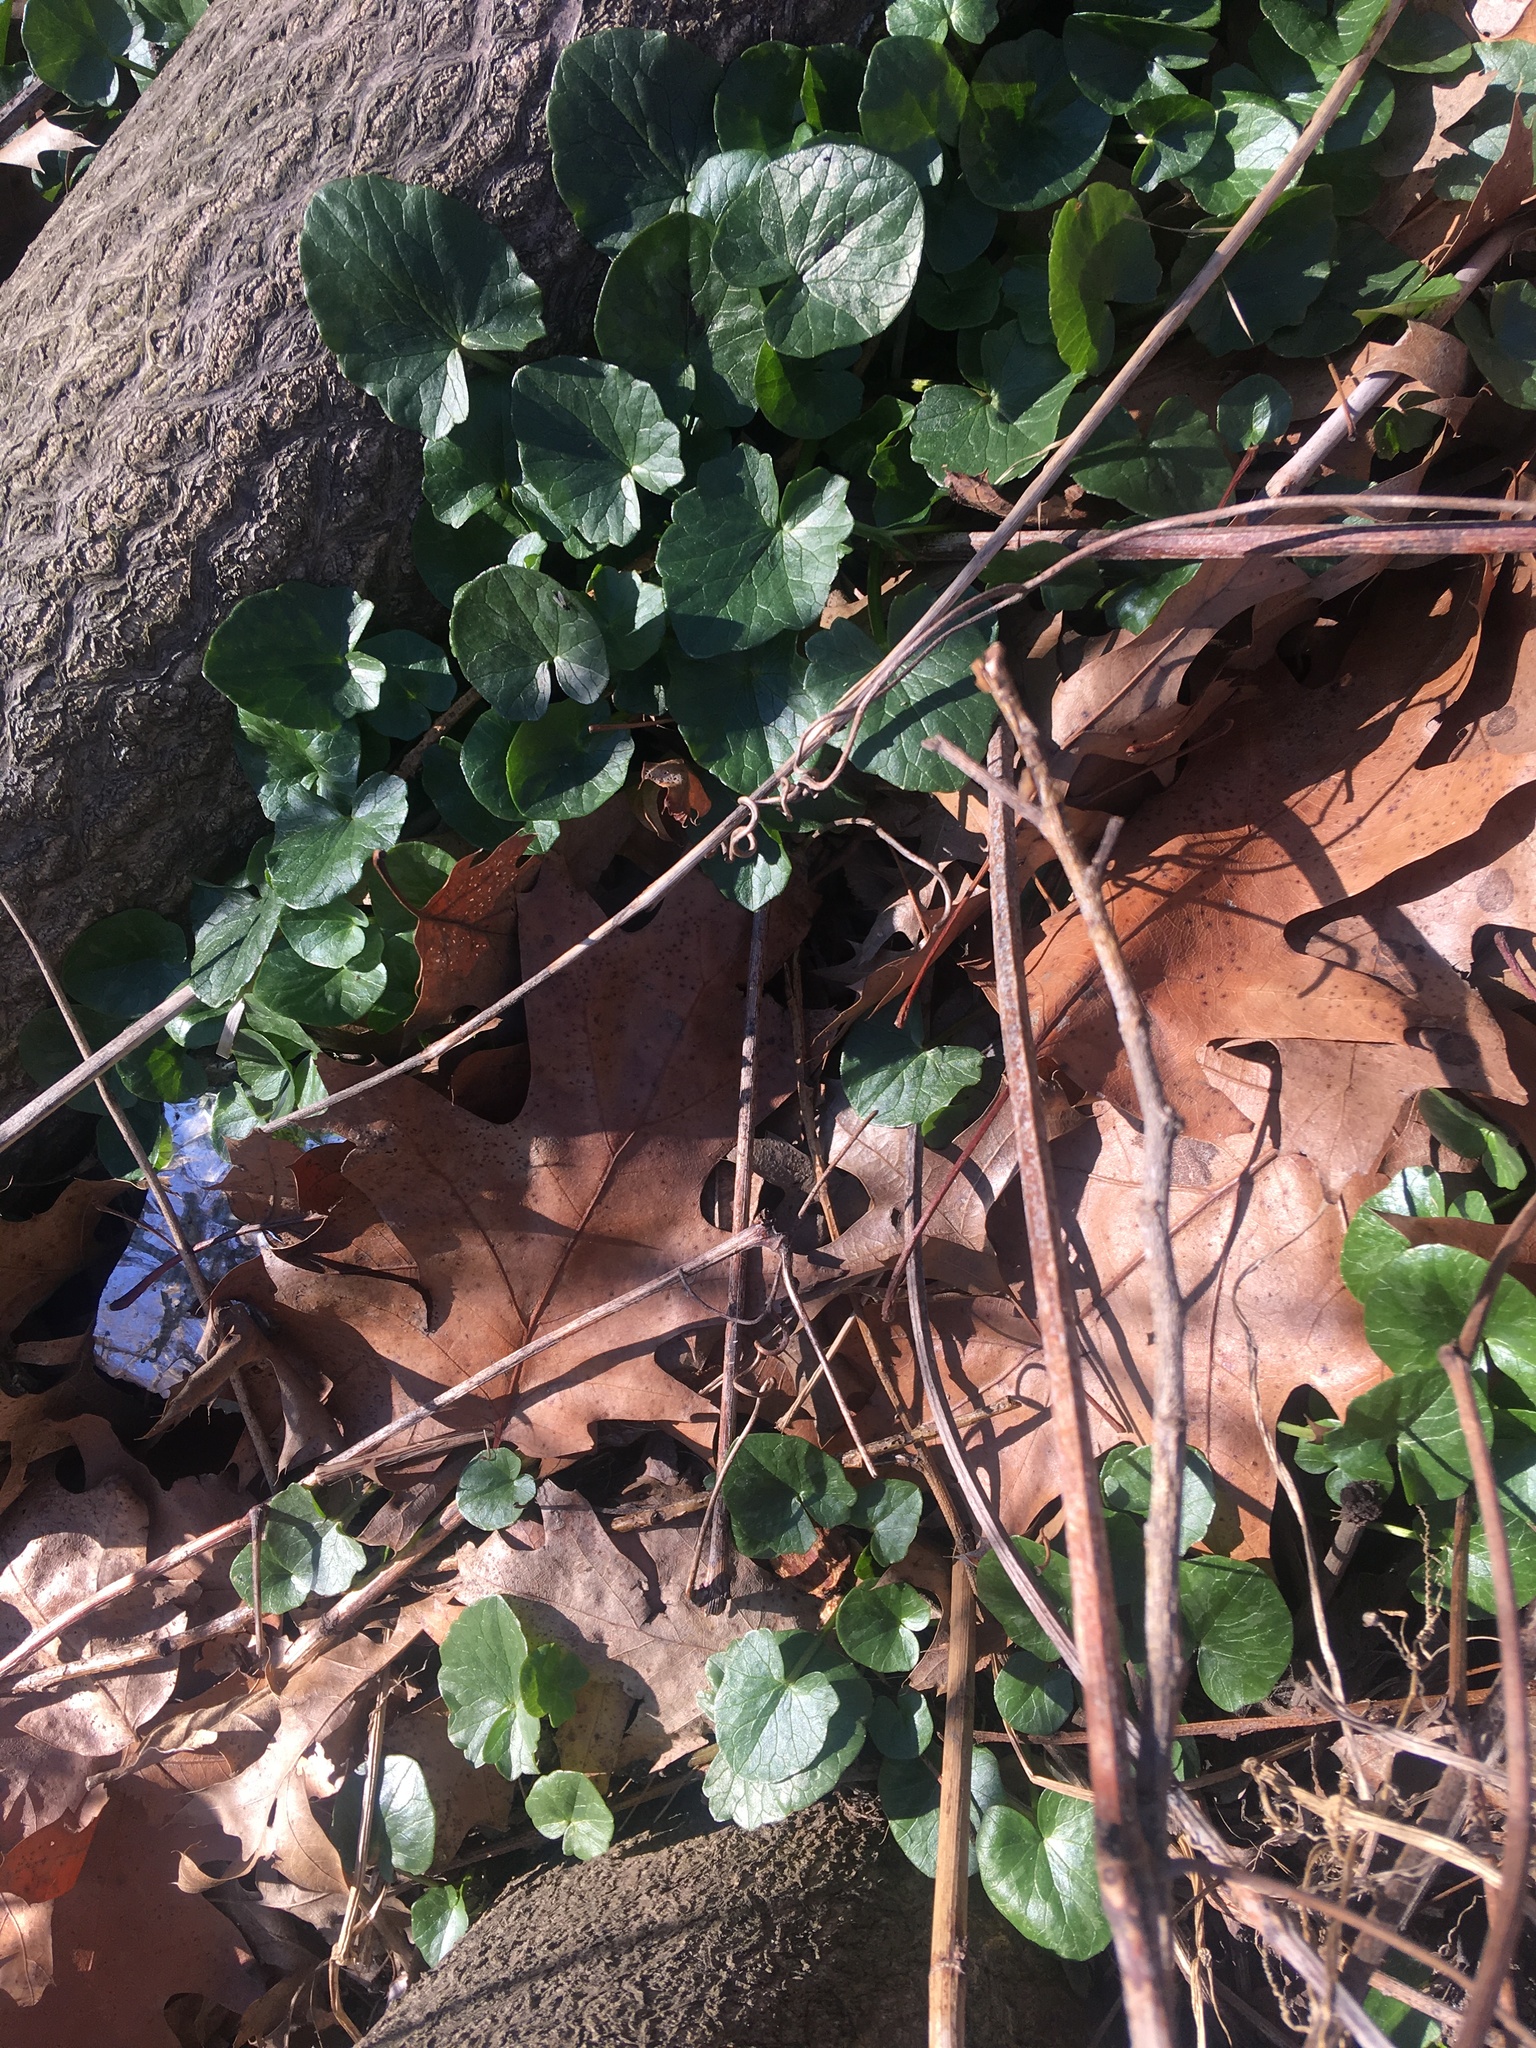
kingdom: Plantae
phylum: Tracheophyta
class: Magnoliopsida
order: Ranunculales
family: Ranunculaceae
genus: Ficaria
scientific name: Ficaria verna
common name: Lesser celandine
